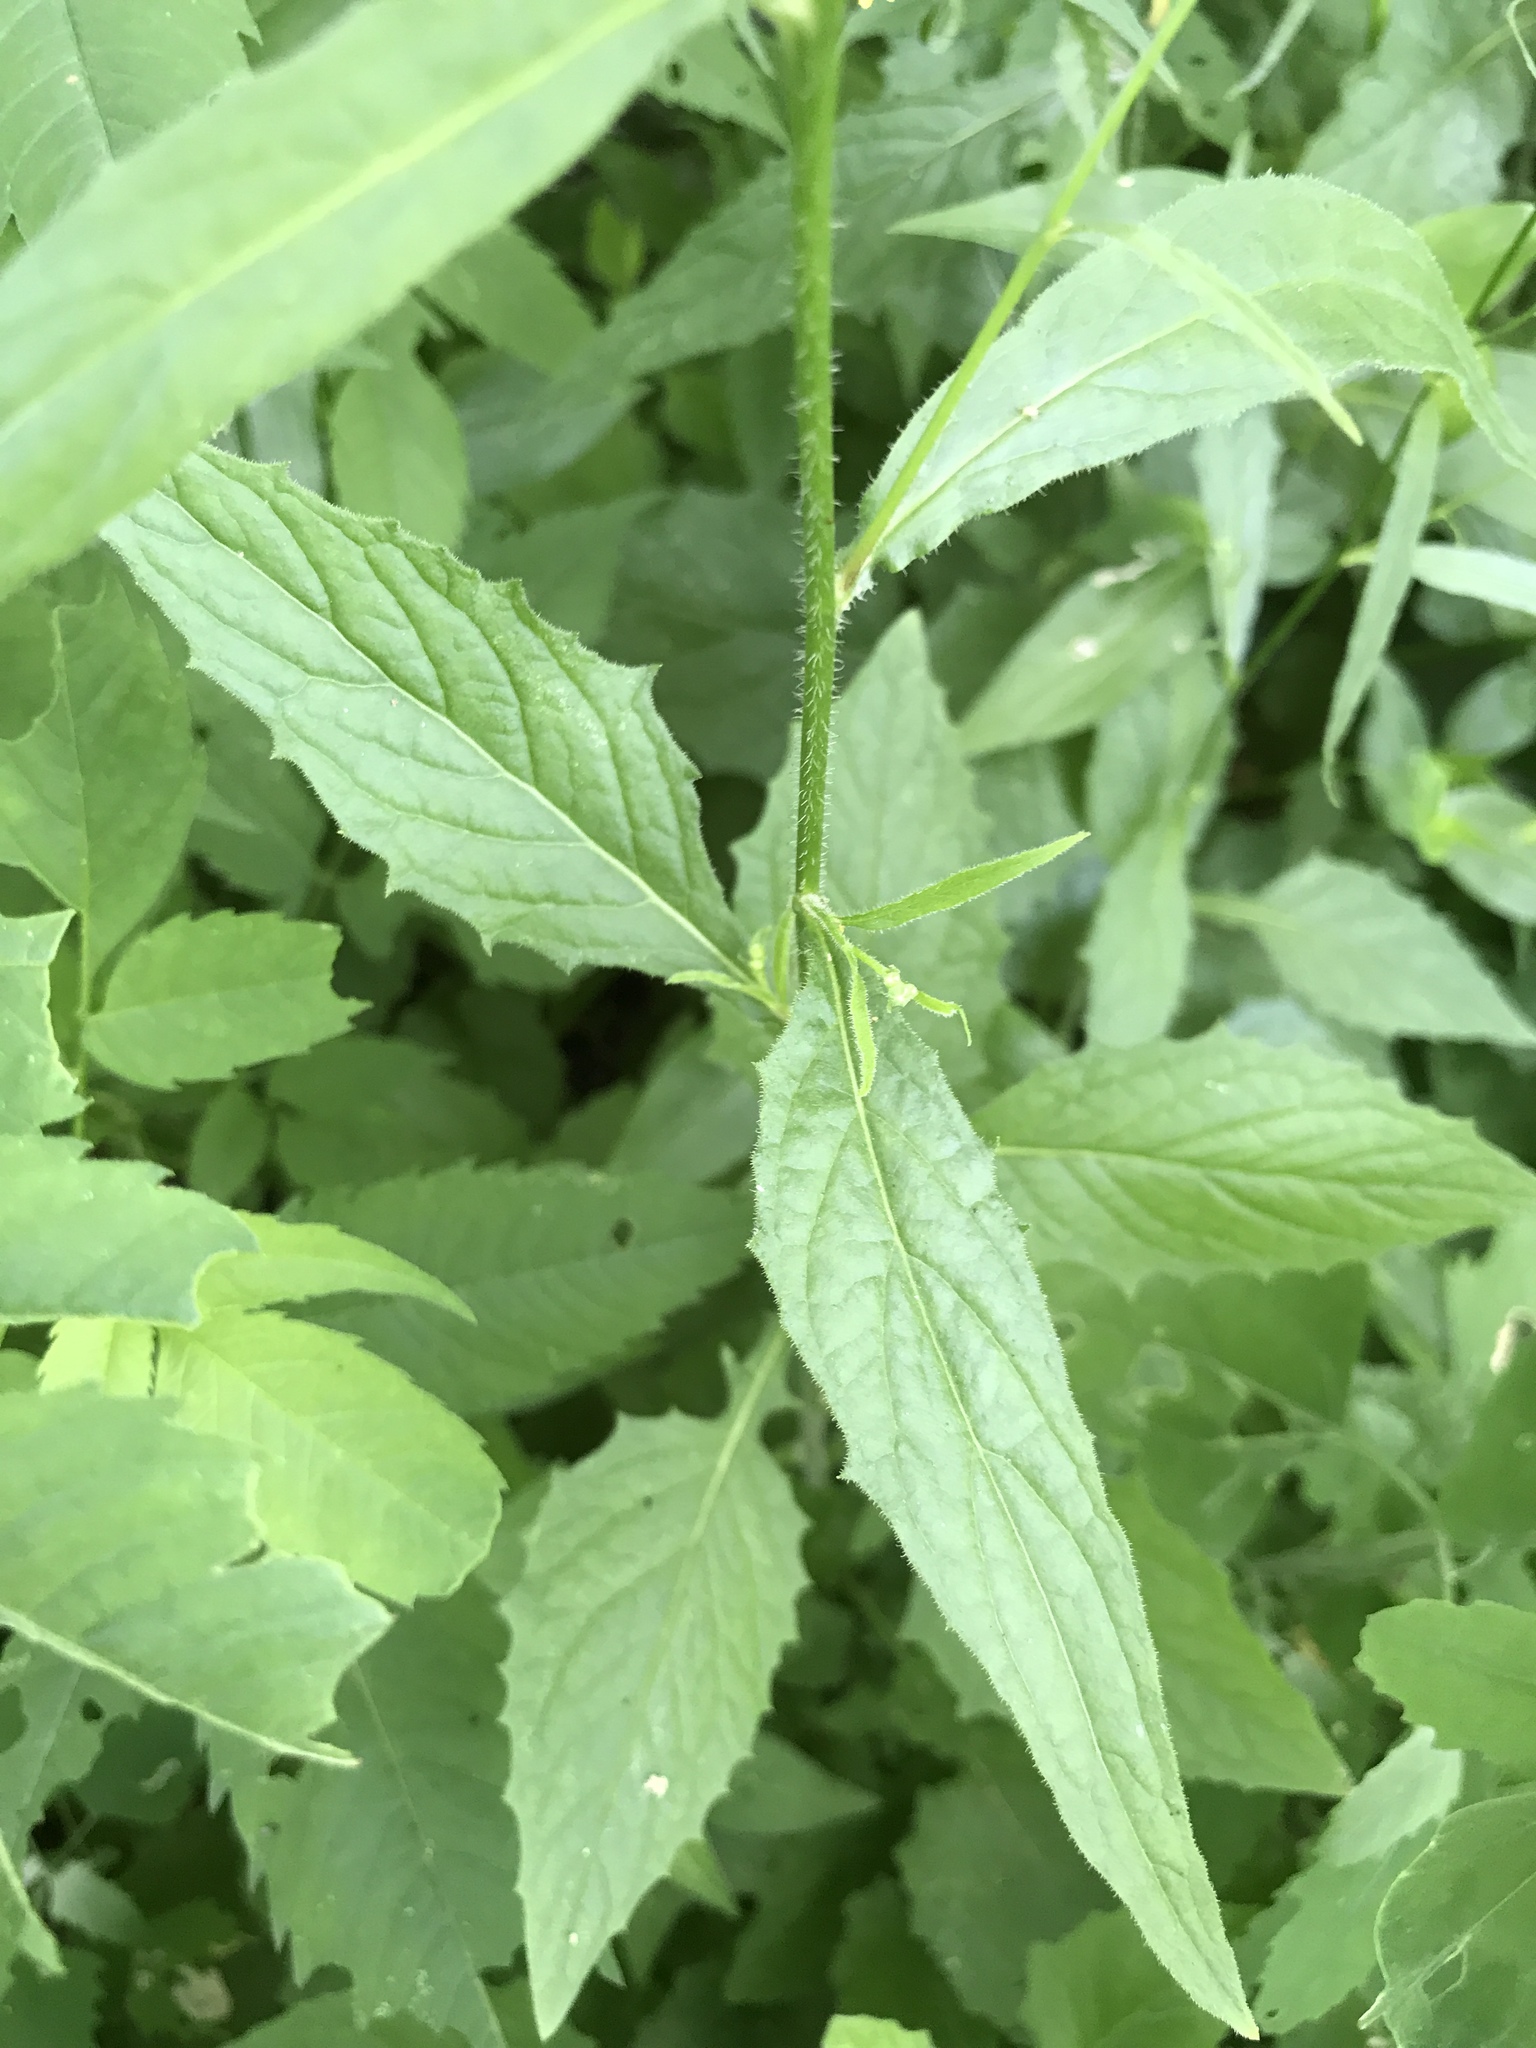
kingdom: Plantae
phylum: Tracheophyta
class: Magnoliopsida
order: Asterales
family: Asteraceae
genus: Lapsana
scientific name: Lapsana communis
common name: Nipplewort
